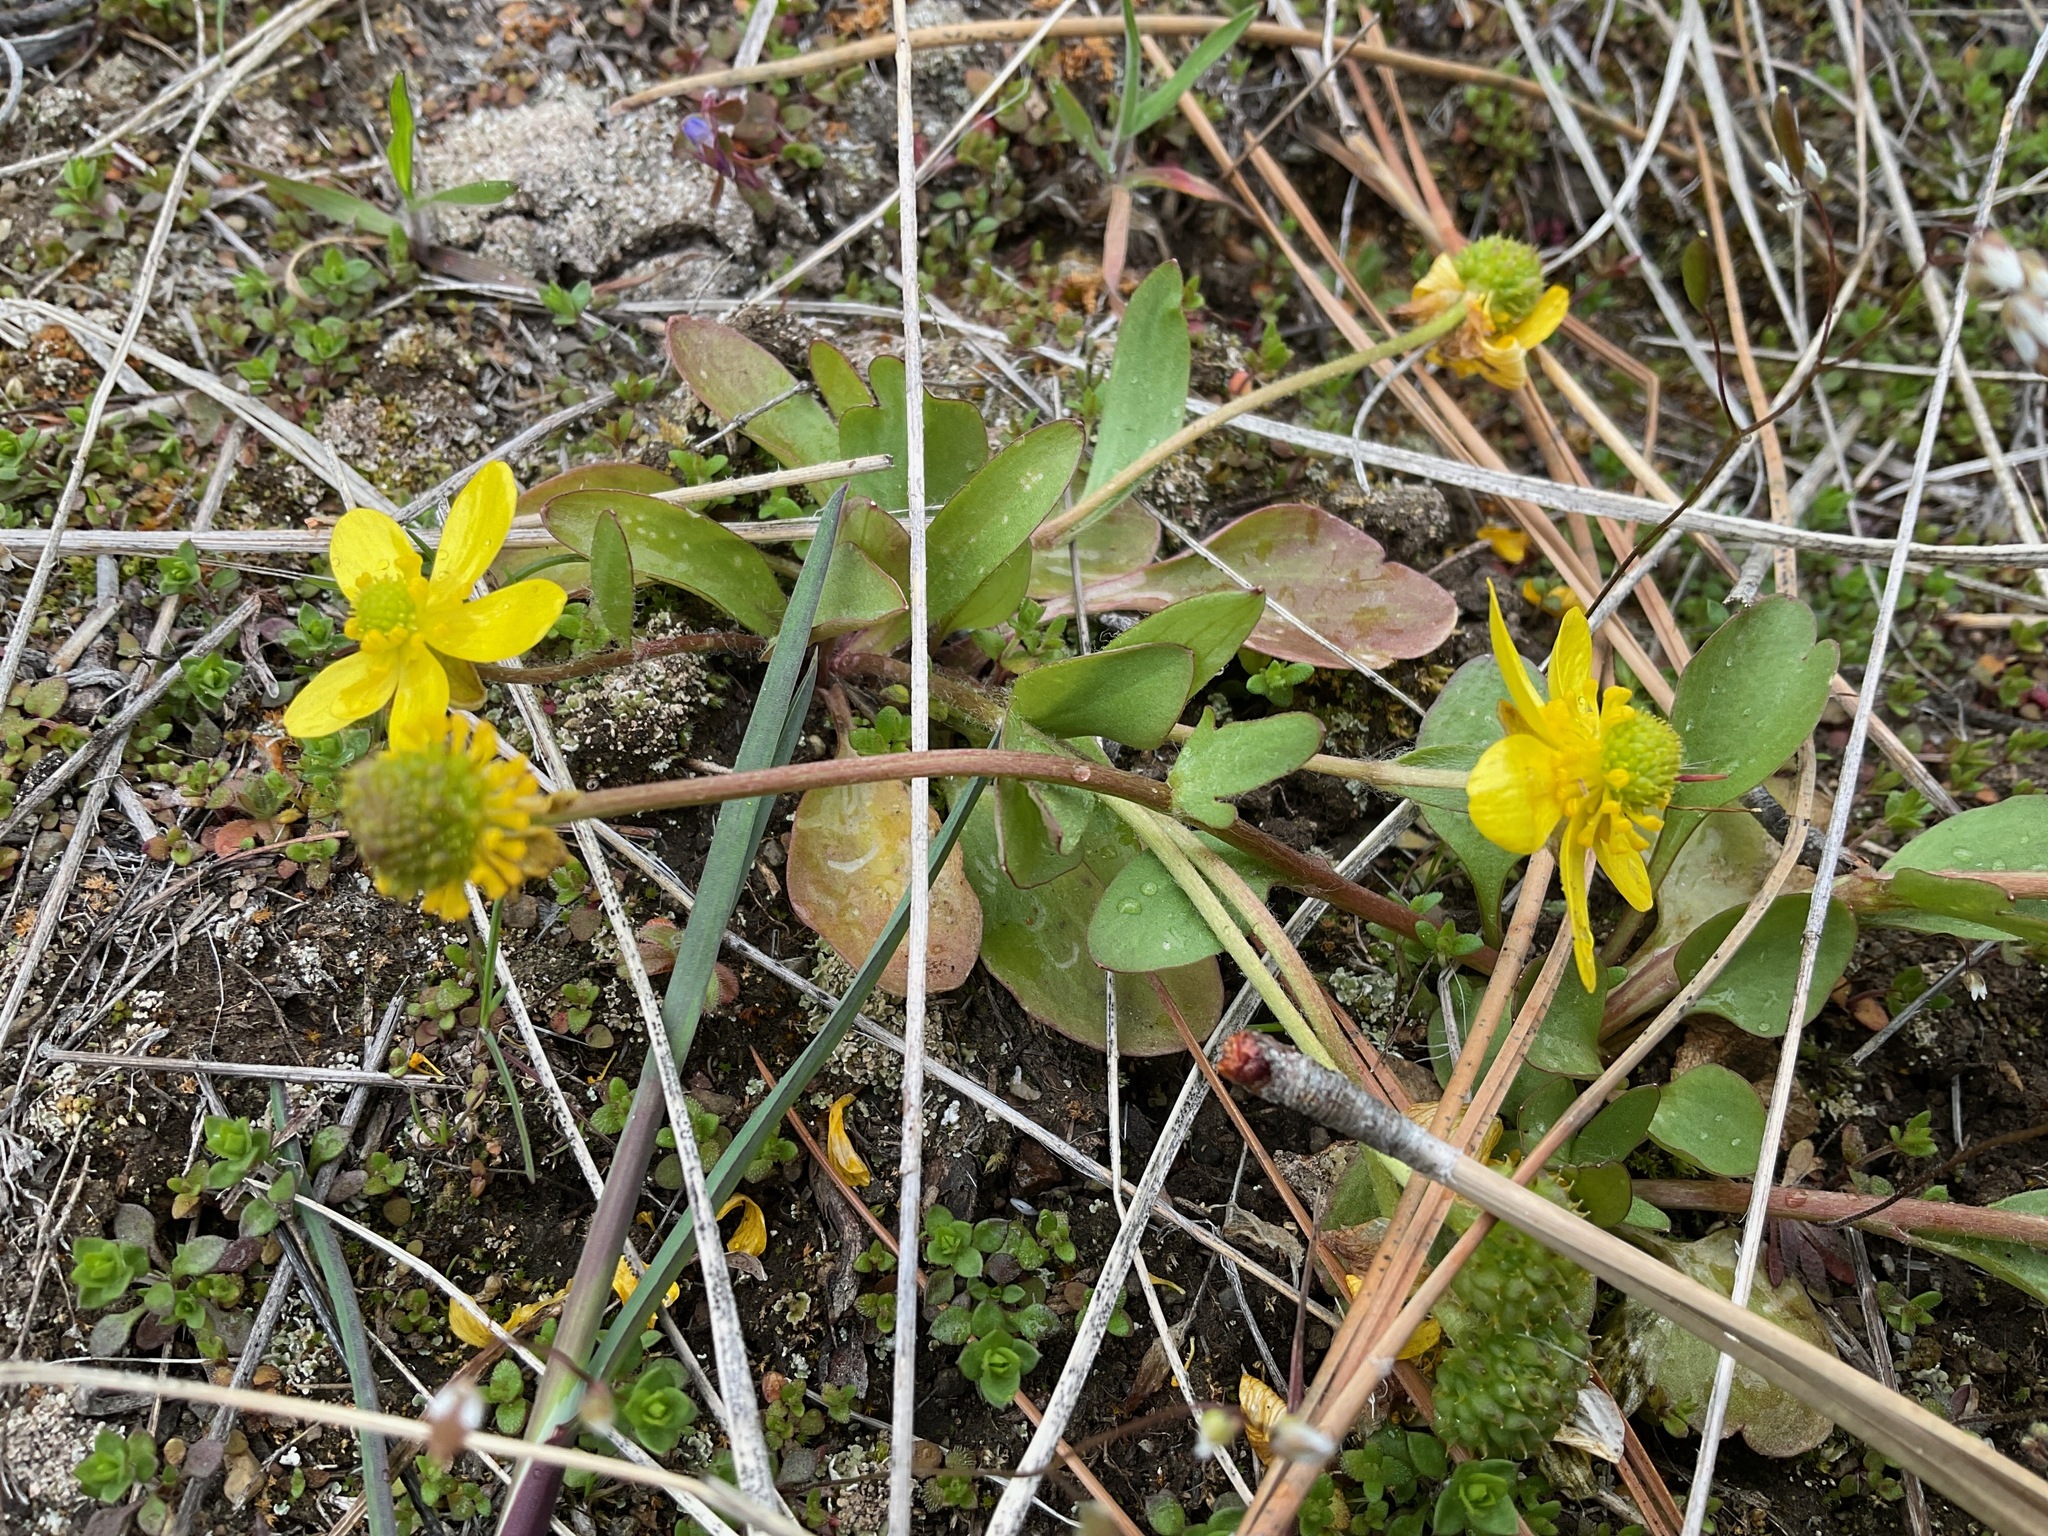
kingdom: Plantae
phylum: Tracheophyta
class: Magnoliopsida
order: Ranunculales
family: Ranunculaceae
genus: Ranunculus
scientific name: Ranunculus glaberrimus
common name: Sagebrush buttercup
